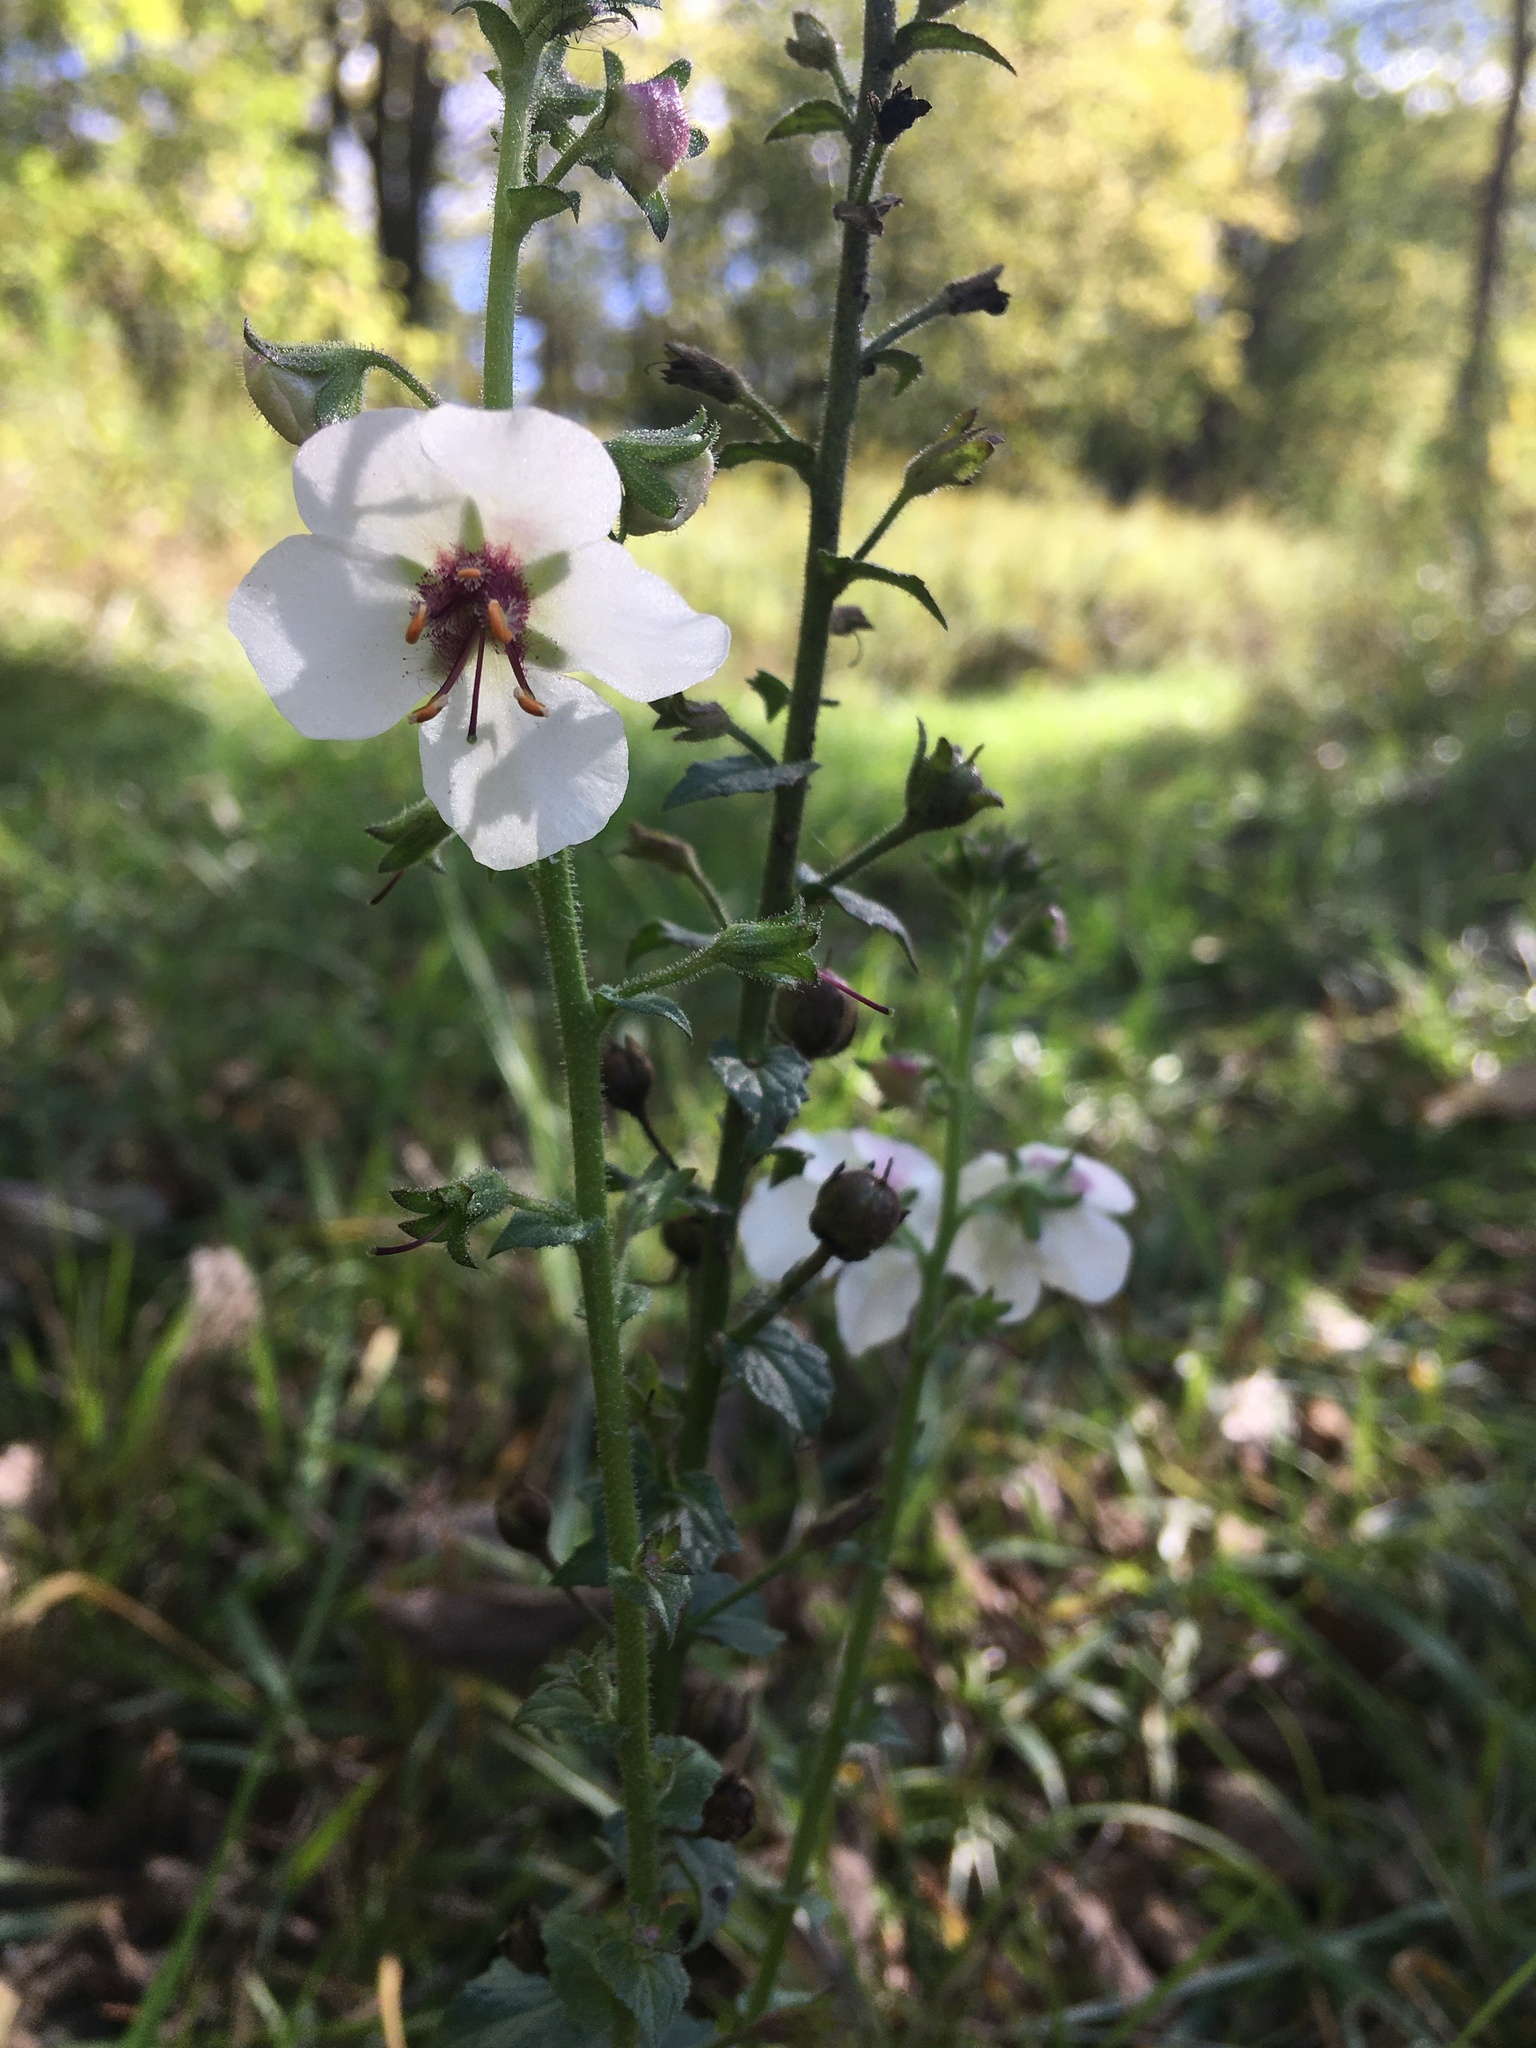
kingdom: Plantae
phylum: Tracheophyta
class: Magnoliopsida
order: Lamiales
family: Scrophulariaceae
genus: Verbascum
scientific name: Verbascum blattaria
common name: Moth mullein
